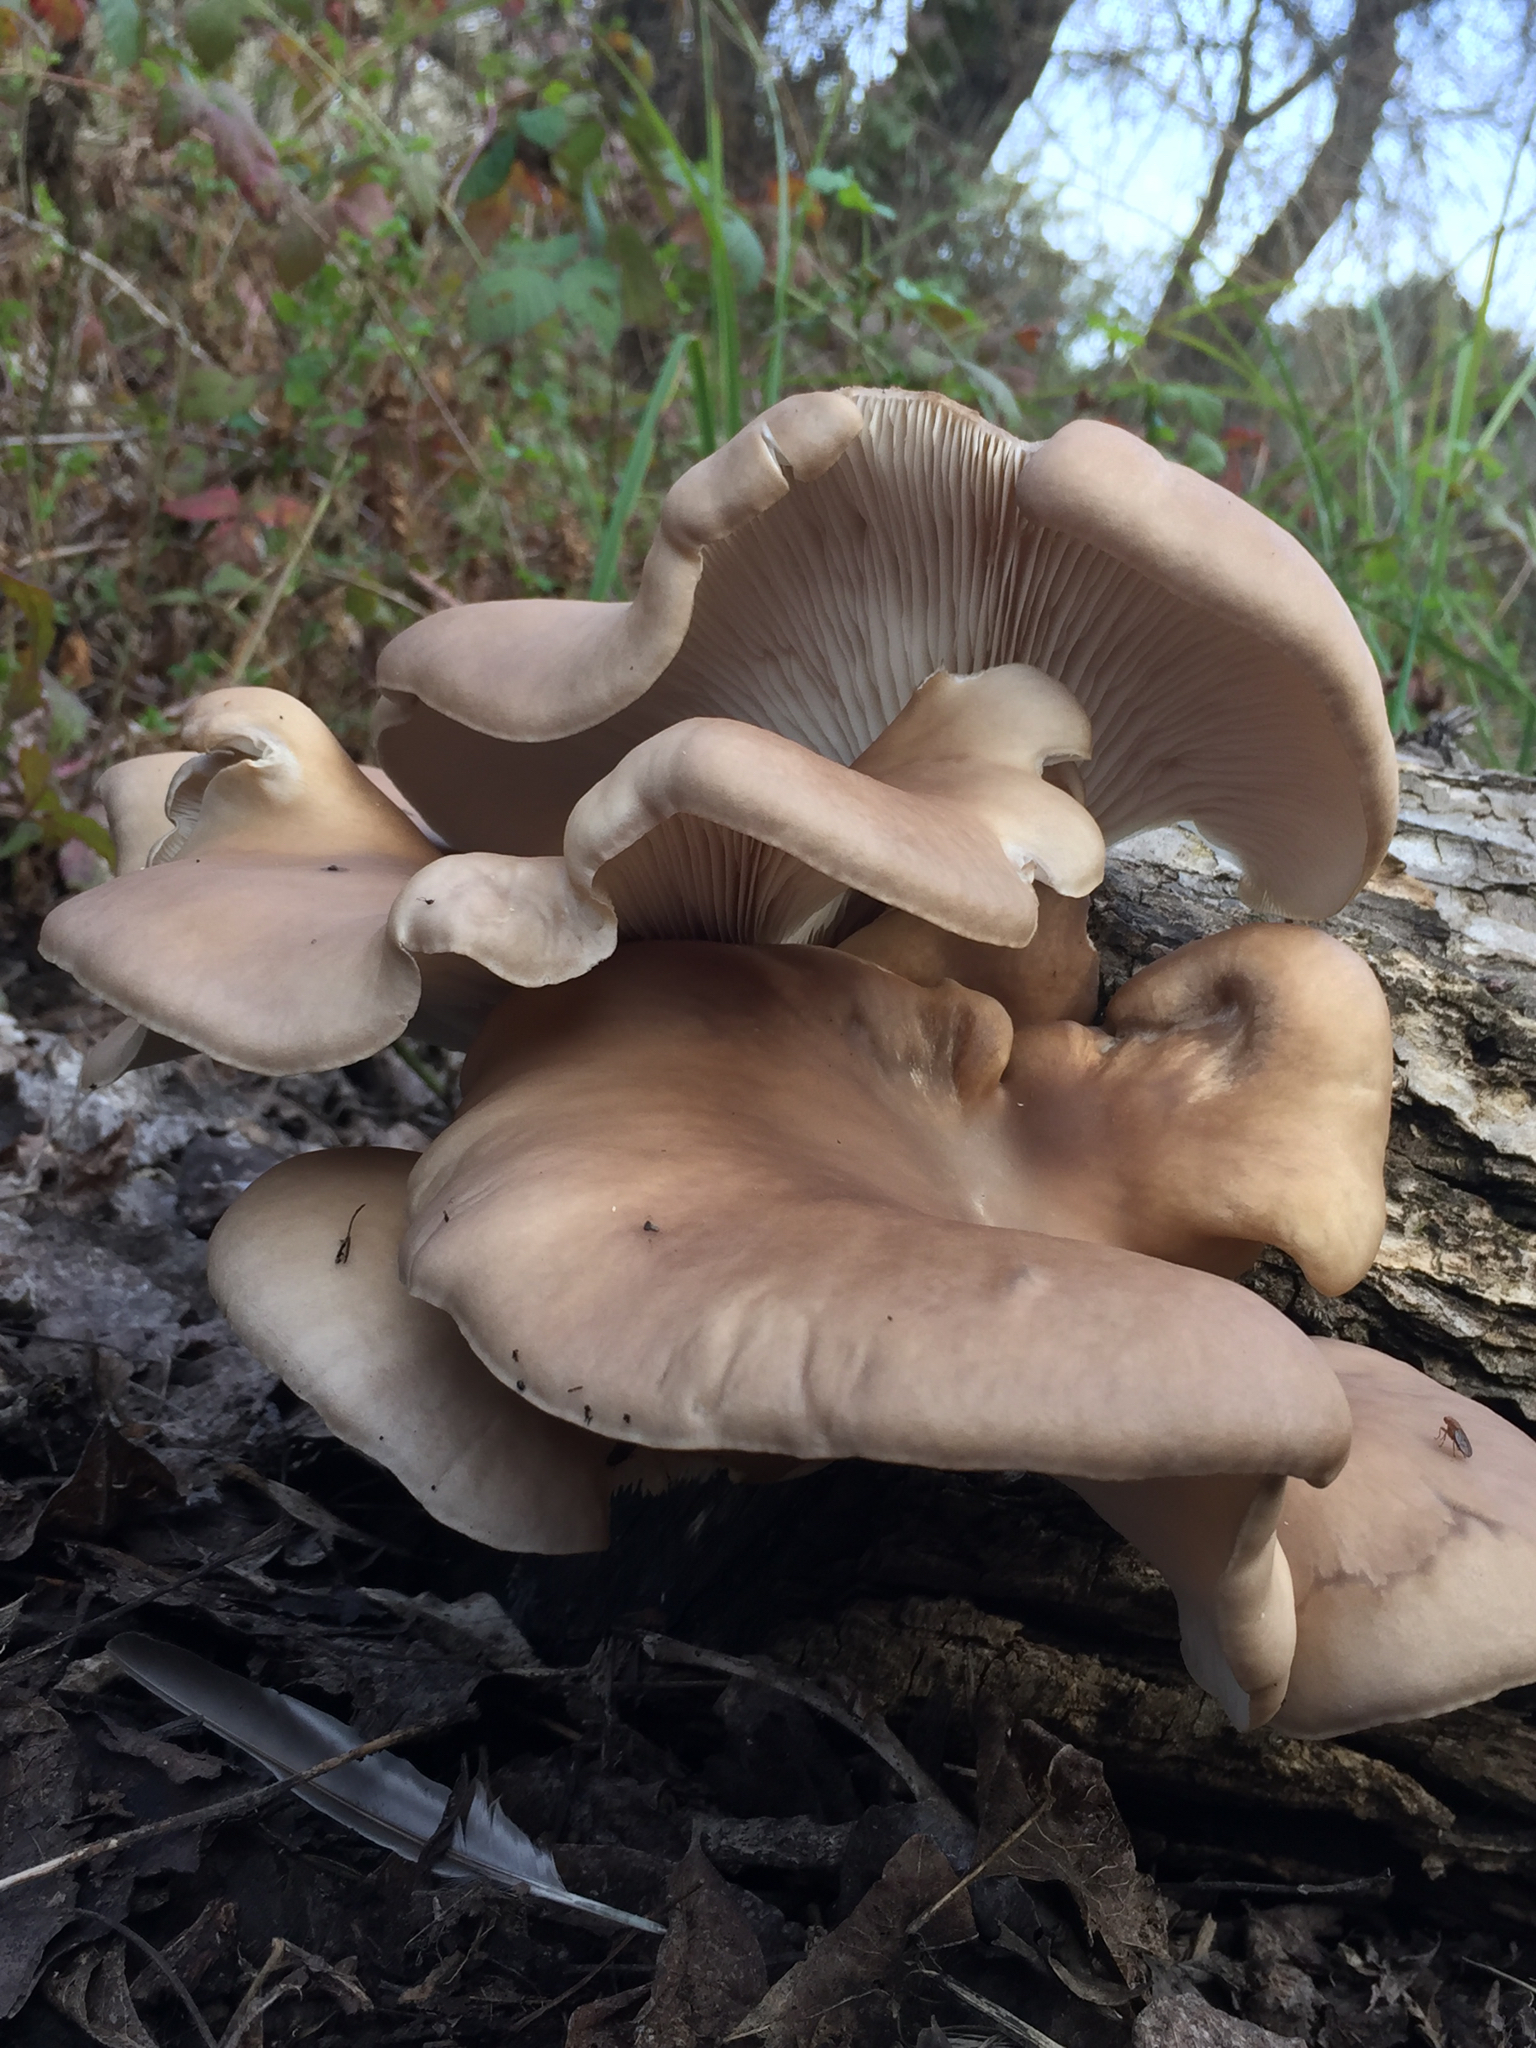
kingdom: Fungi
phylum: Basidiomycota
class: Agaricomycetes
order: Agaricales
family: Pleurotaceae
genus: Pleurotus
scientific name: Pleurotus ostreatus
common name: Oyster mushroom
